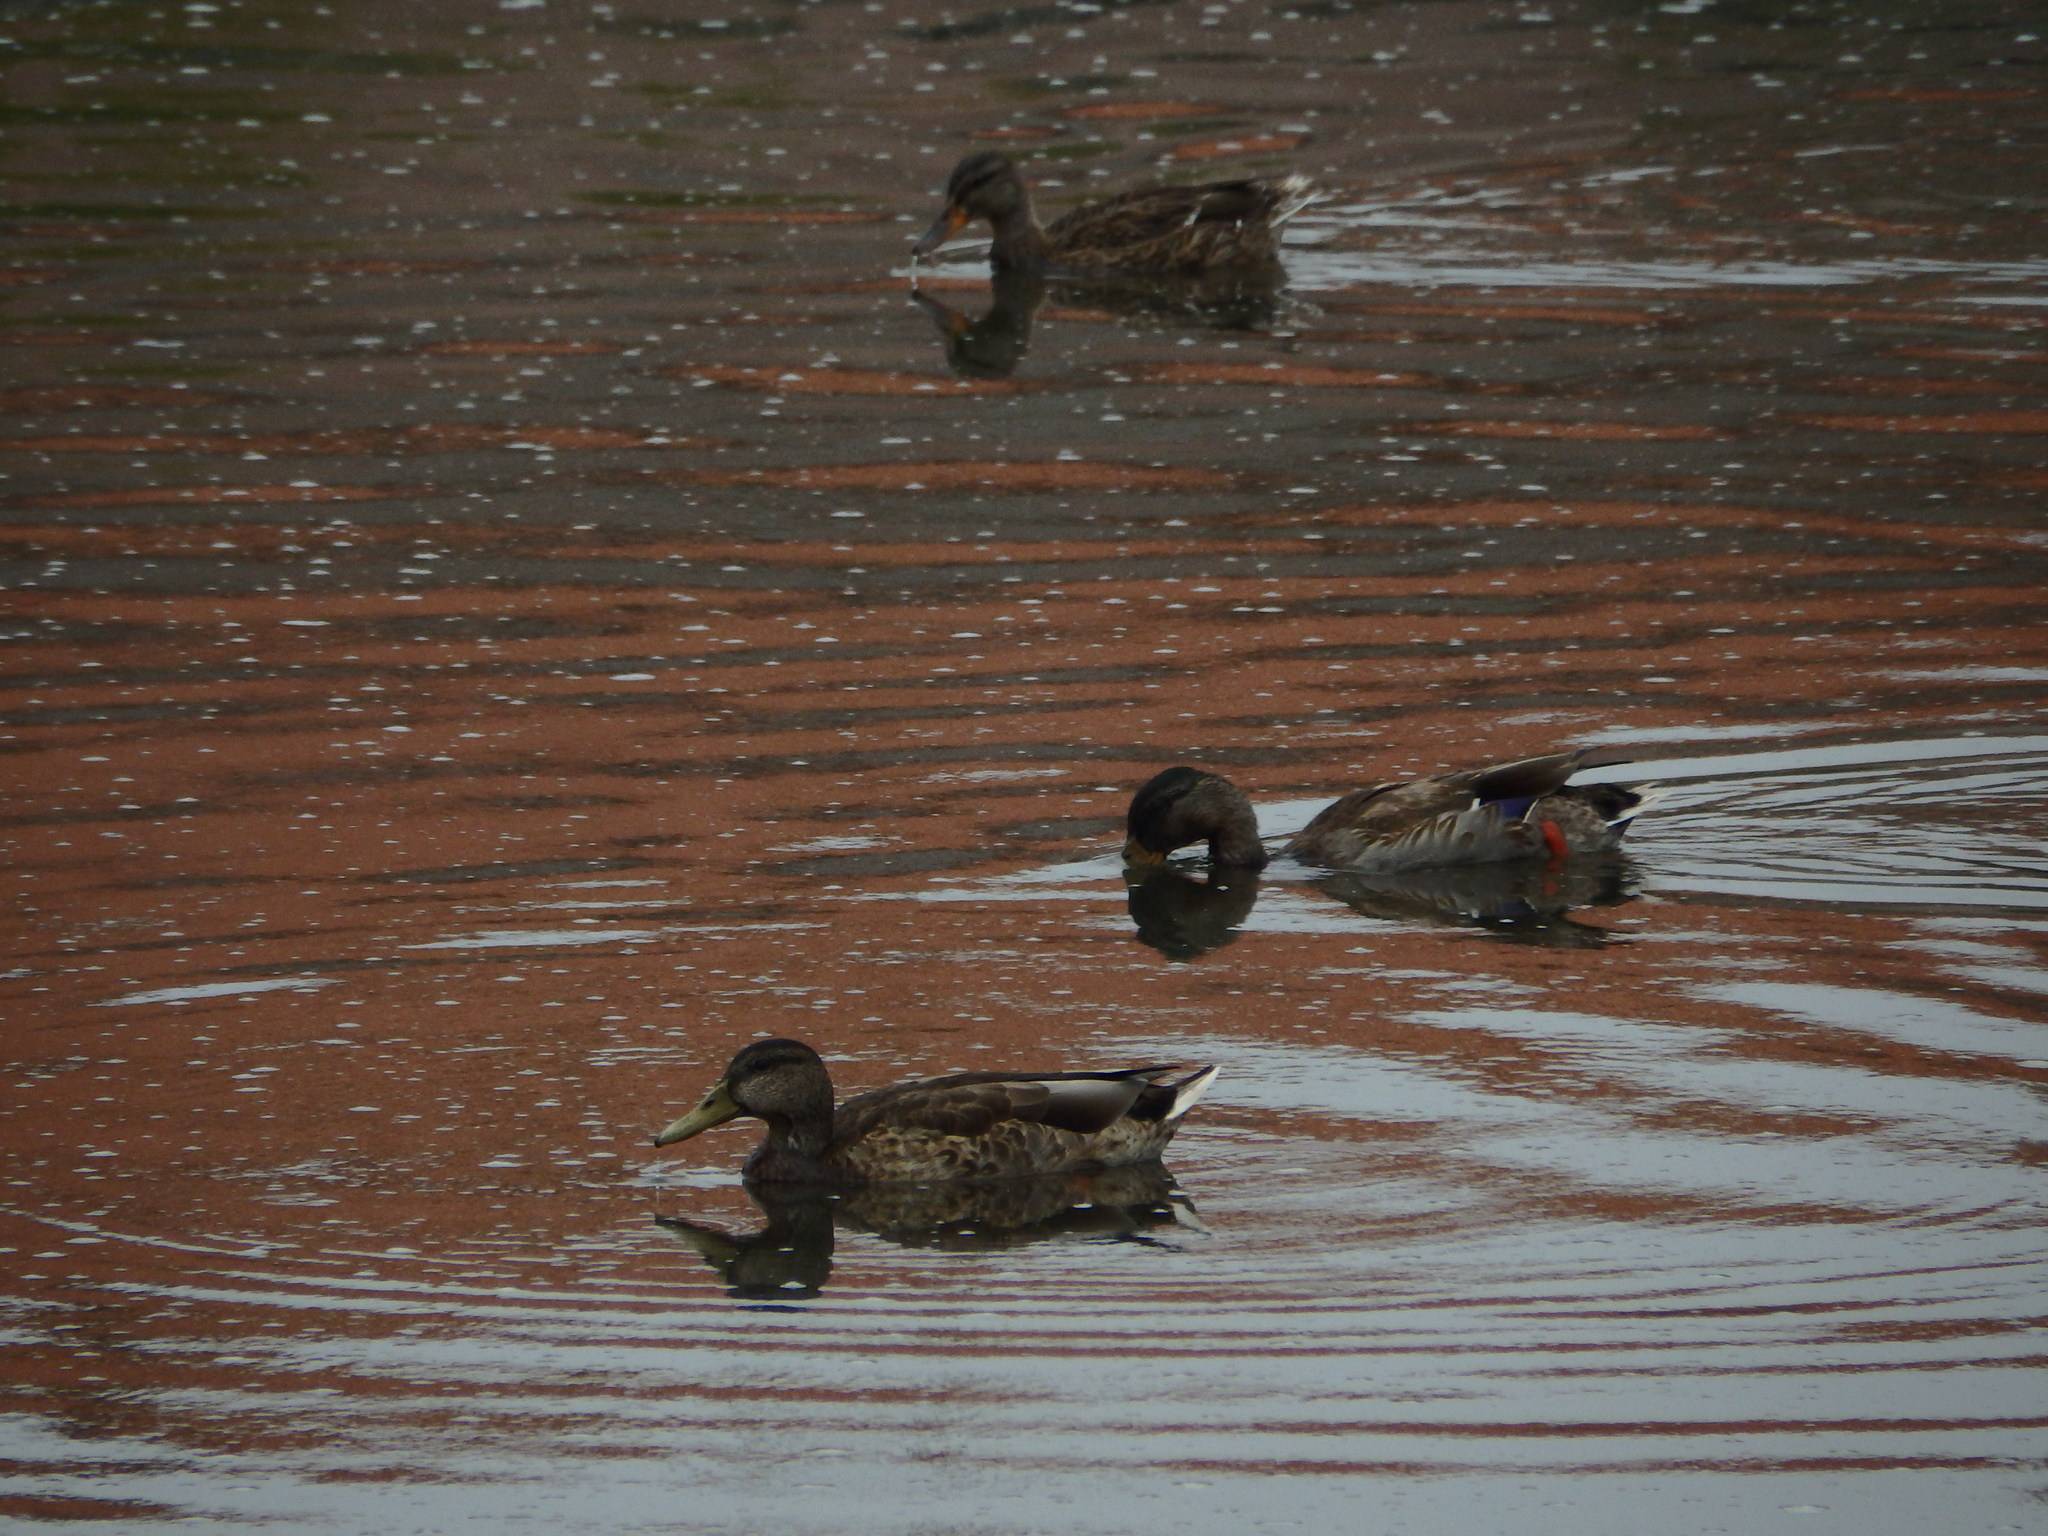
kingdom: Animalia
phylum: Chordata
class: Aves
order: Anseriformes
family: Anatidae
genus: Anas
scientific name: Anas platyrhynchos
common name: Mallard
